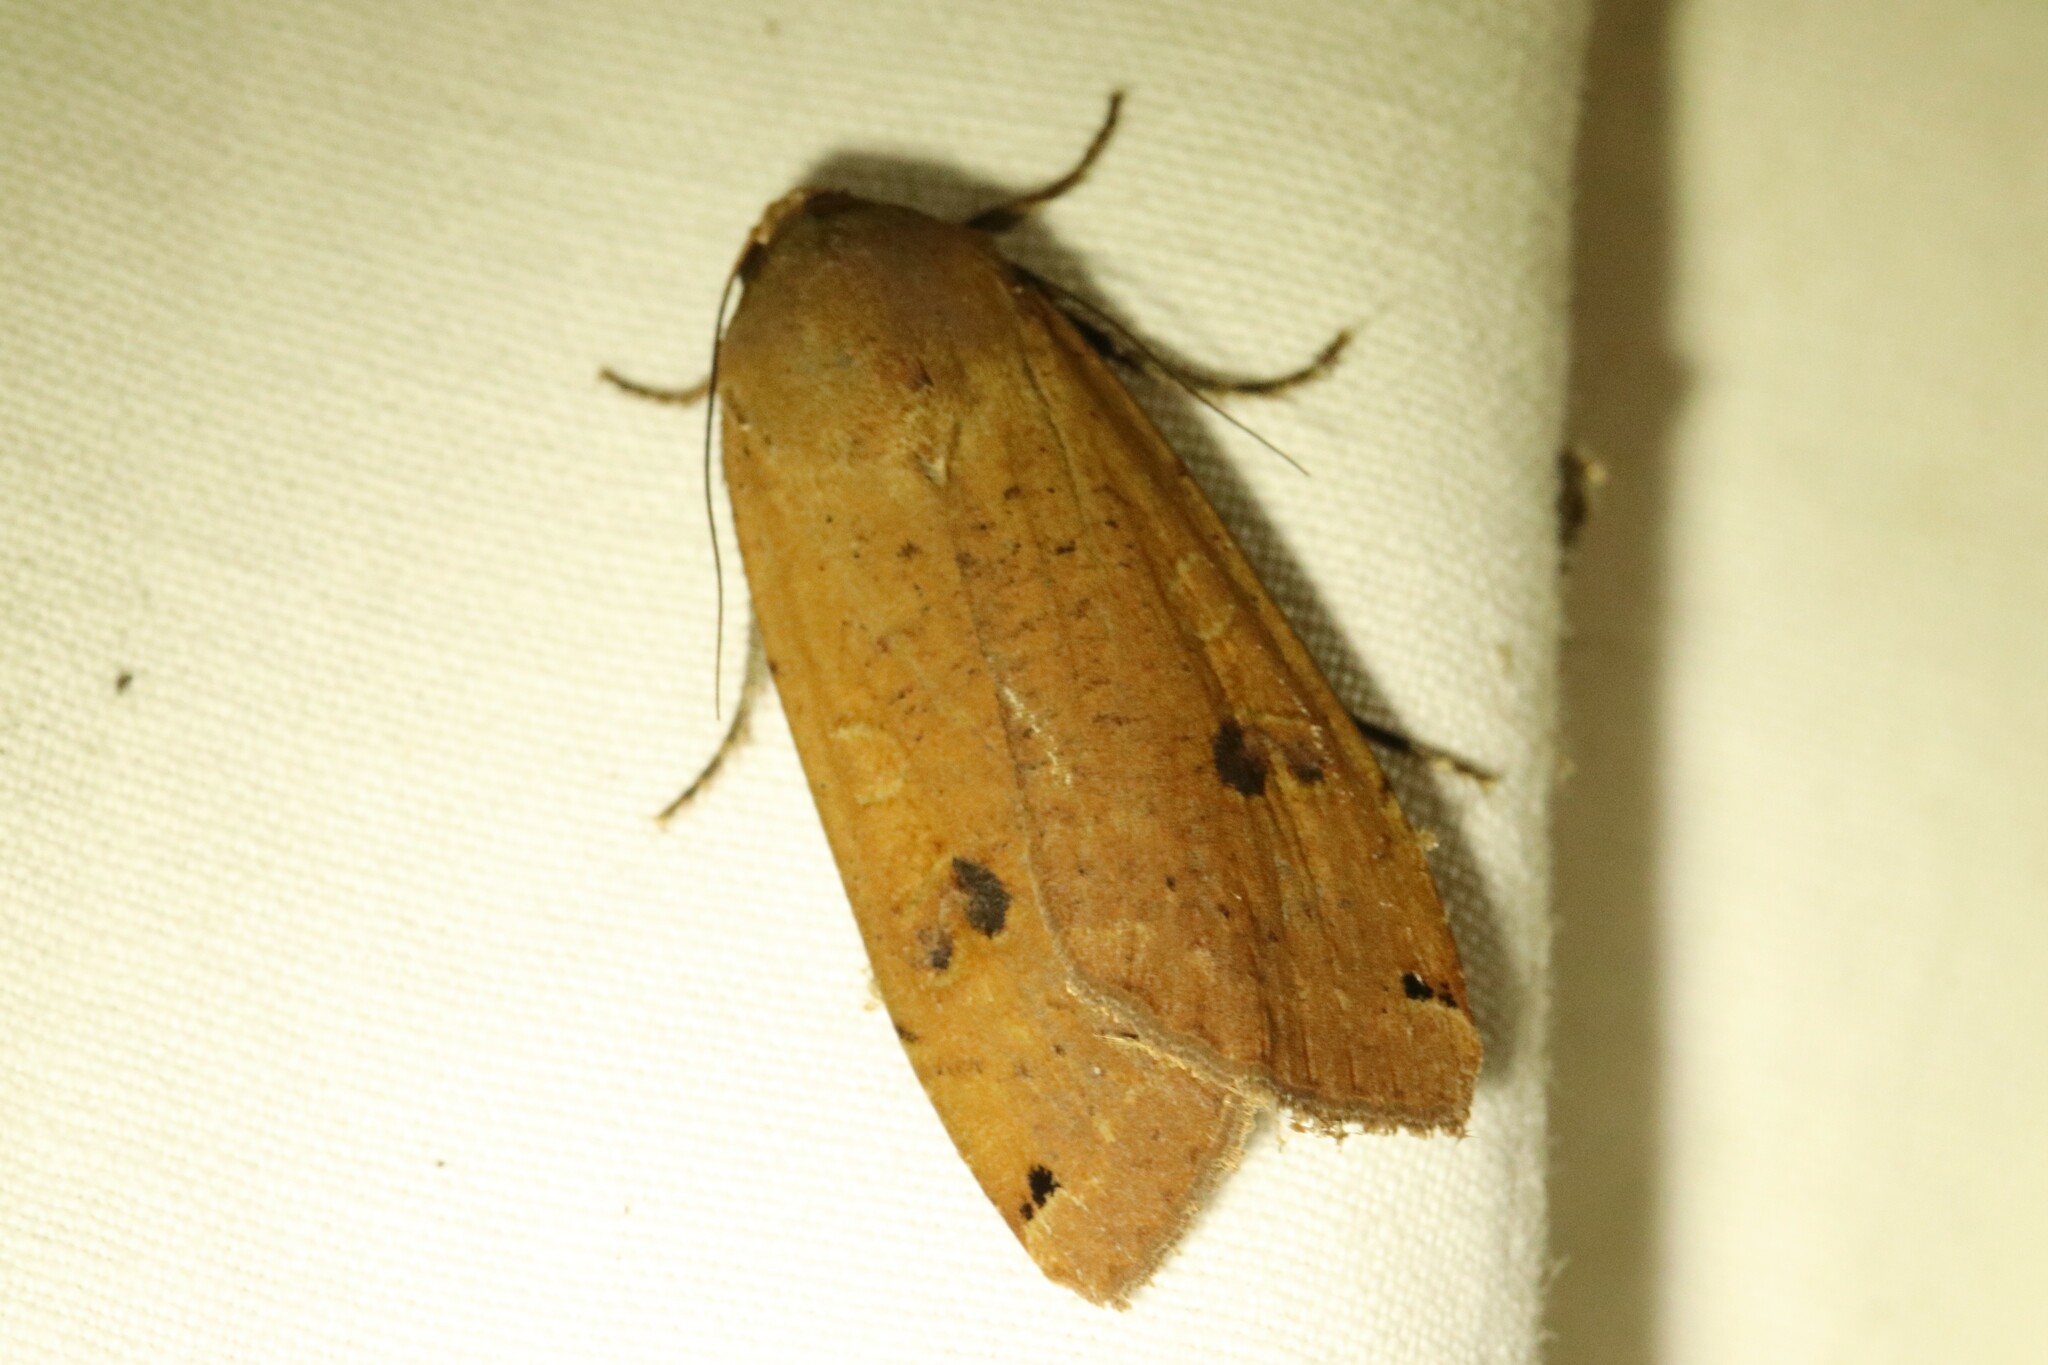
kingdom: Animalia
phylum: Arthropoda
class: Insecta
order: Lepidoptera
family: Noctuidae
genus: Noctua
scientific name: Noctua pronuba
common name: Large yellow underwing
